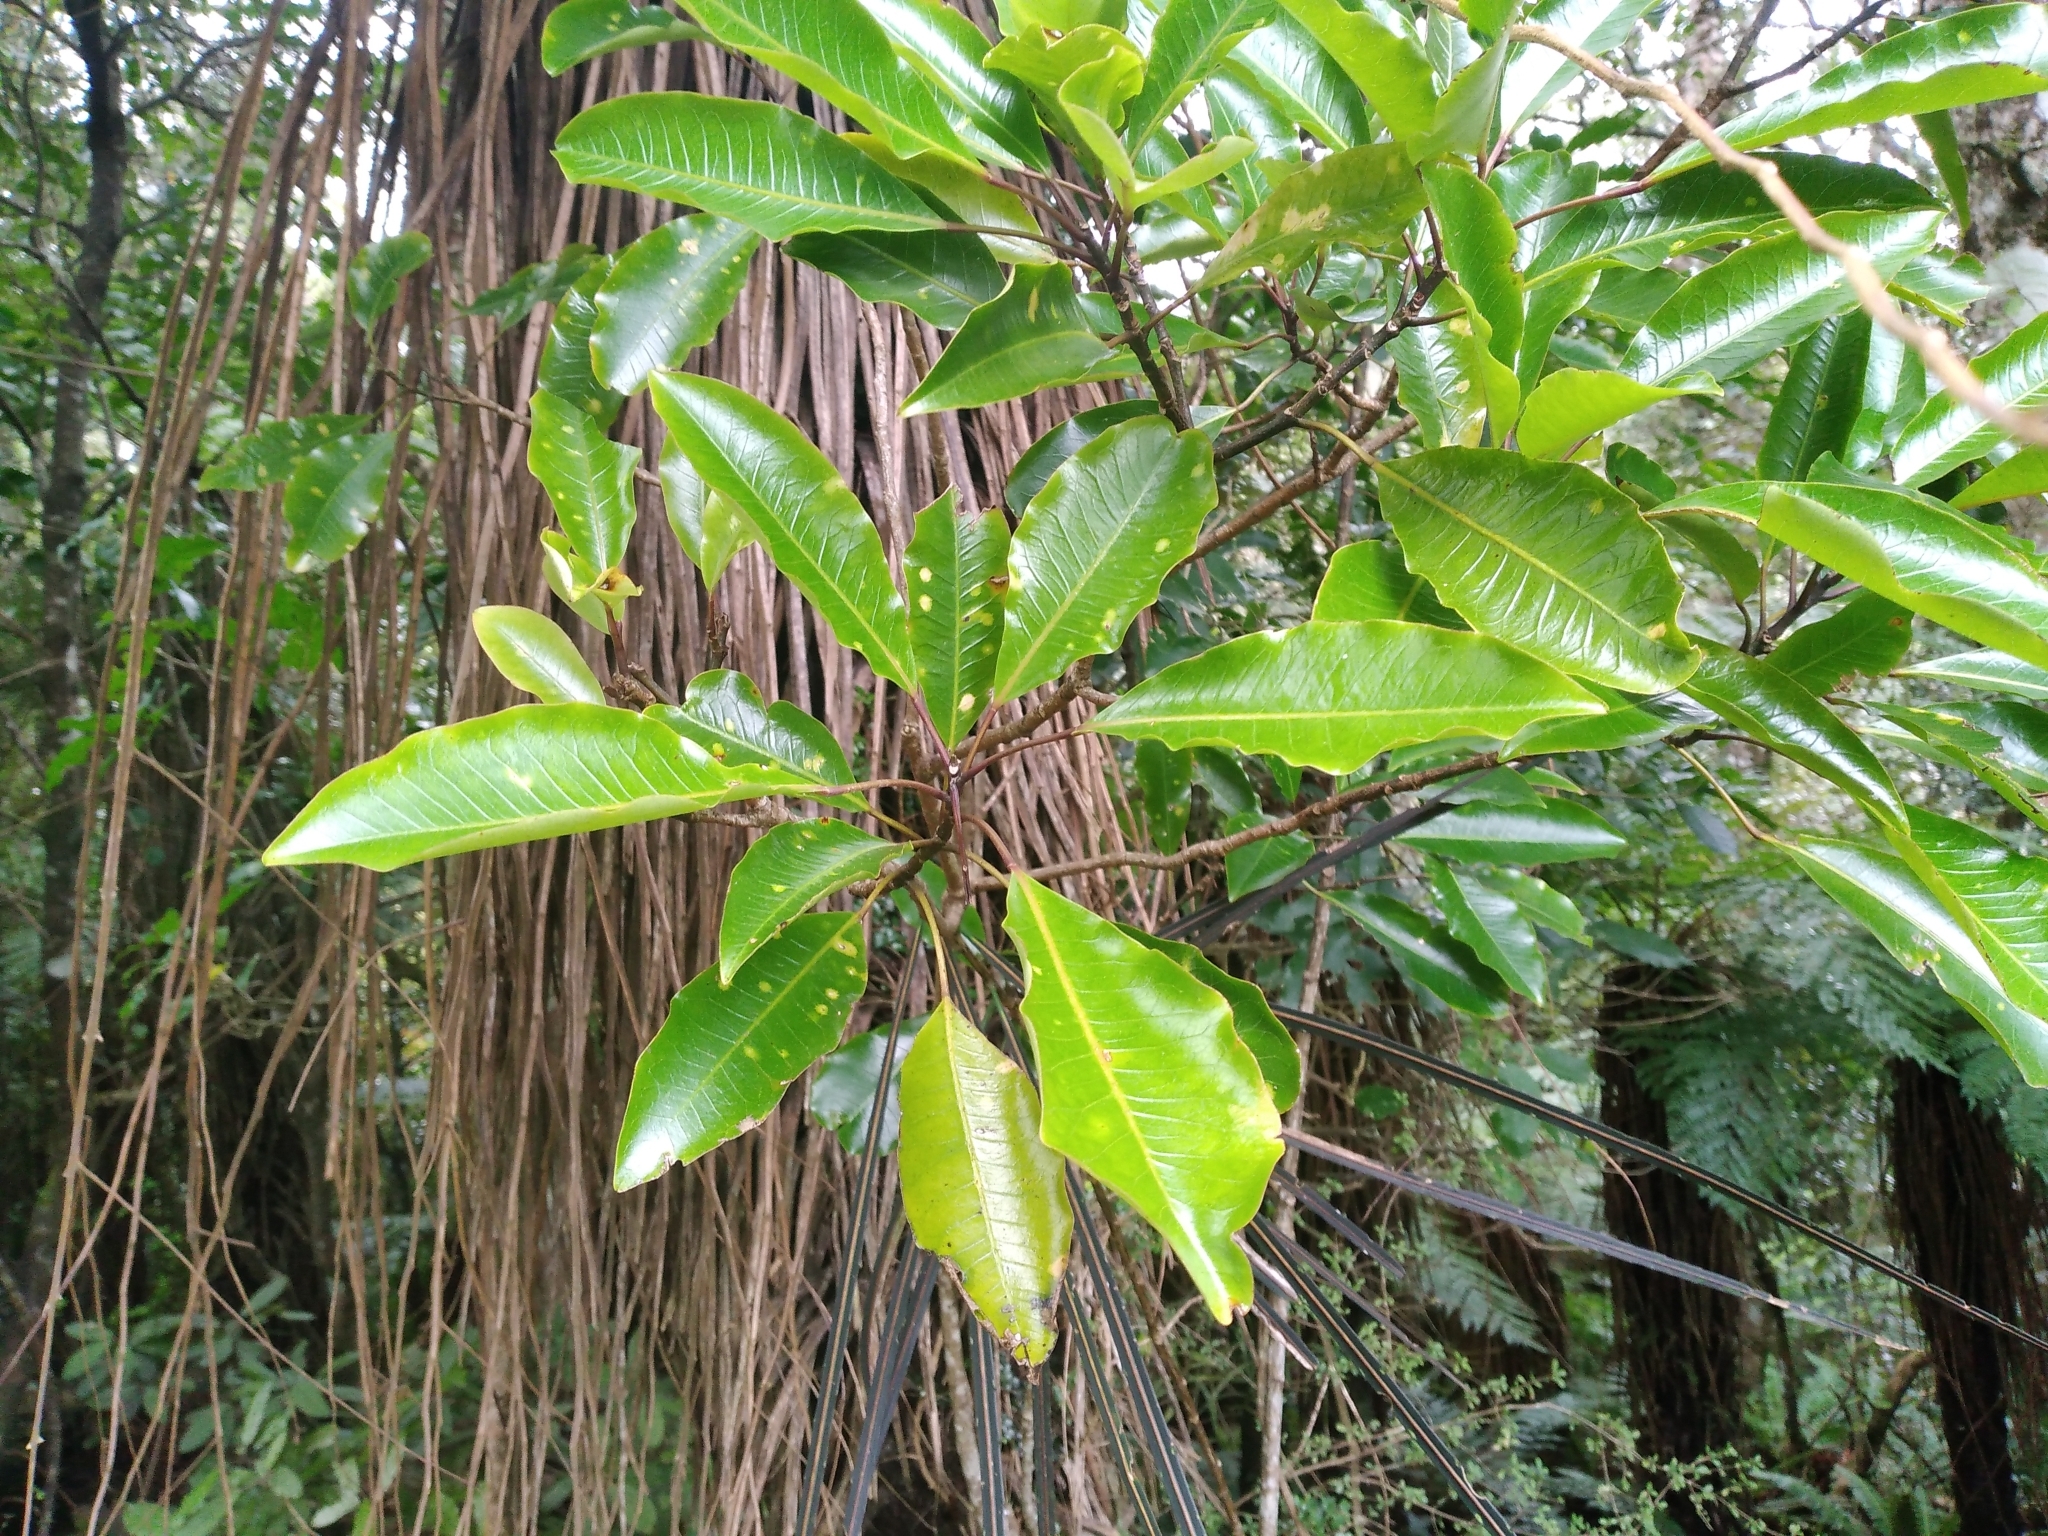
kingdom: Plantae
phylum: Tracheophyta
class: Magnoliopsida
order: Apiales
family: Araliaceae
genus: Raukaua
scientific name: Raukaua edgerleyi
